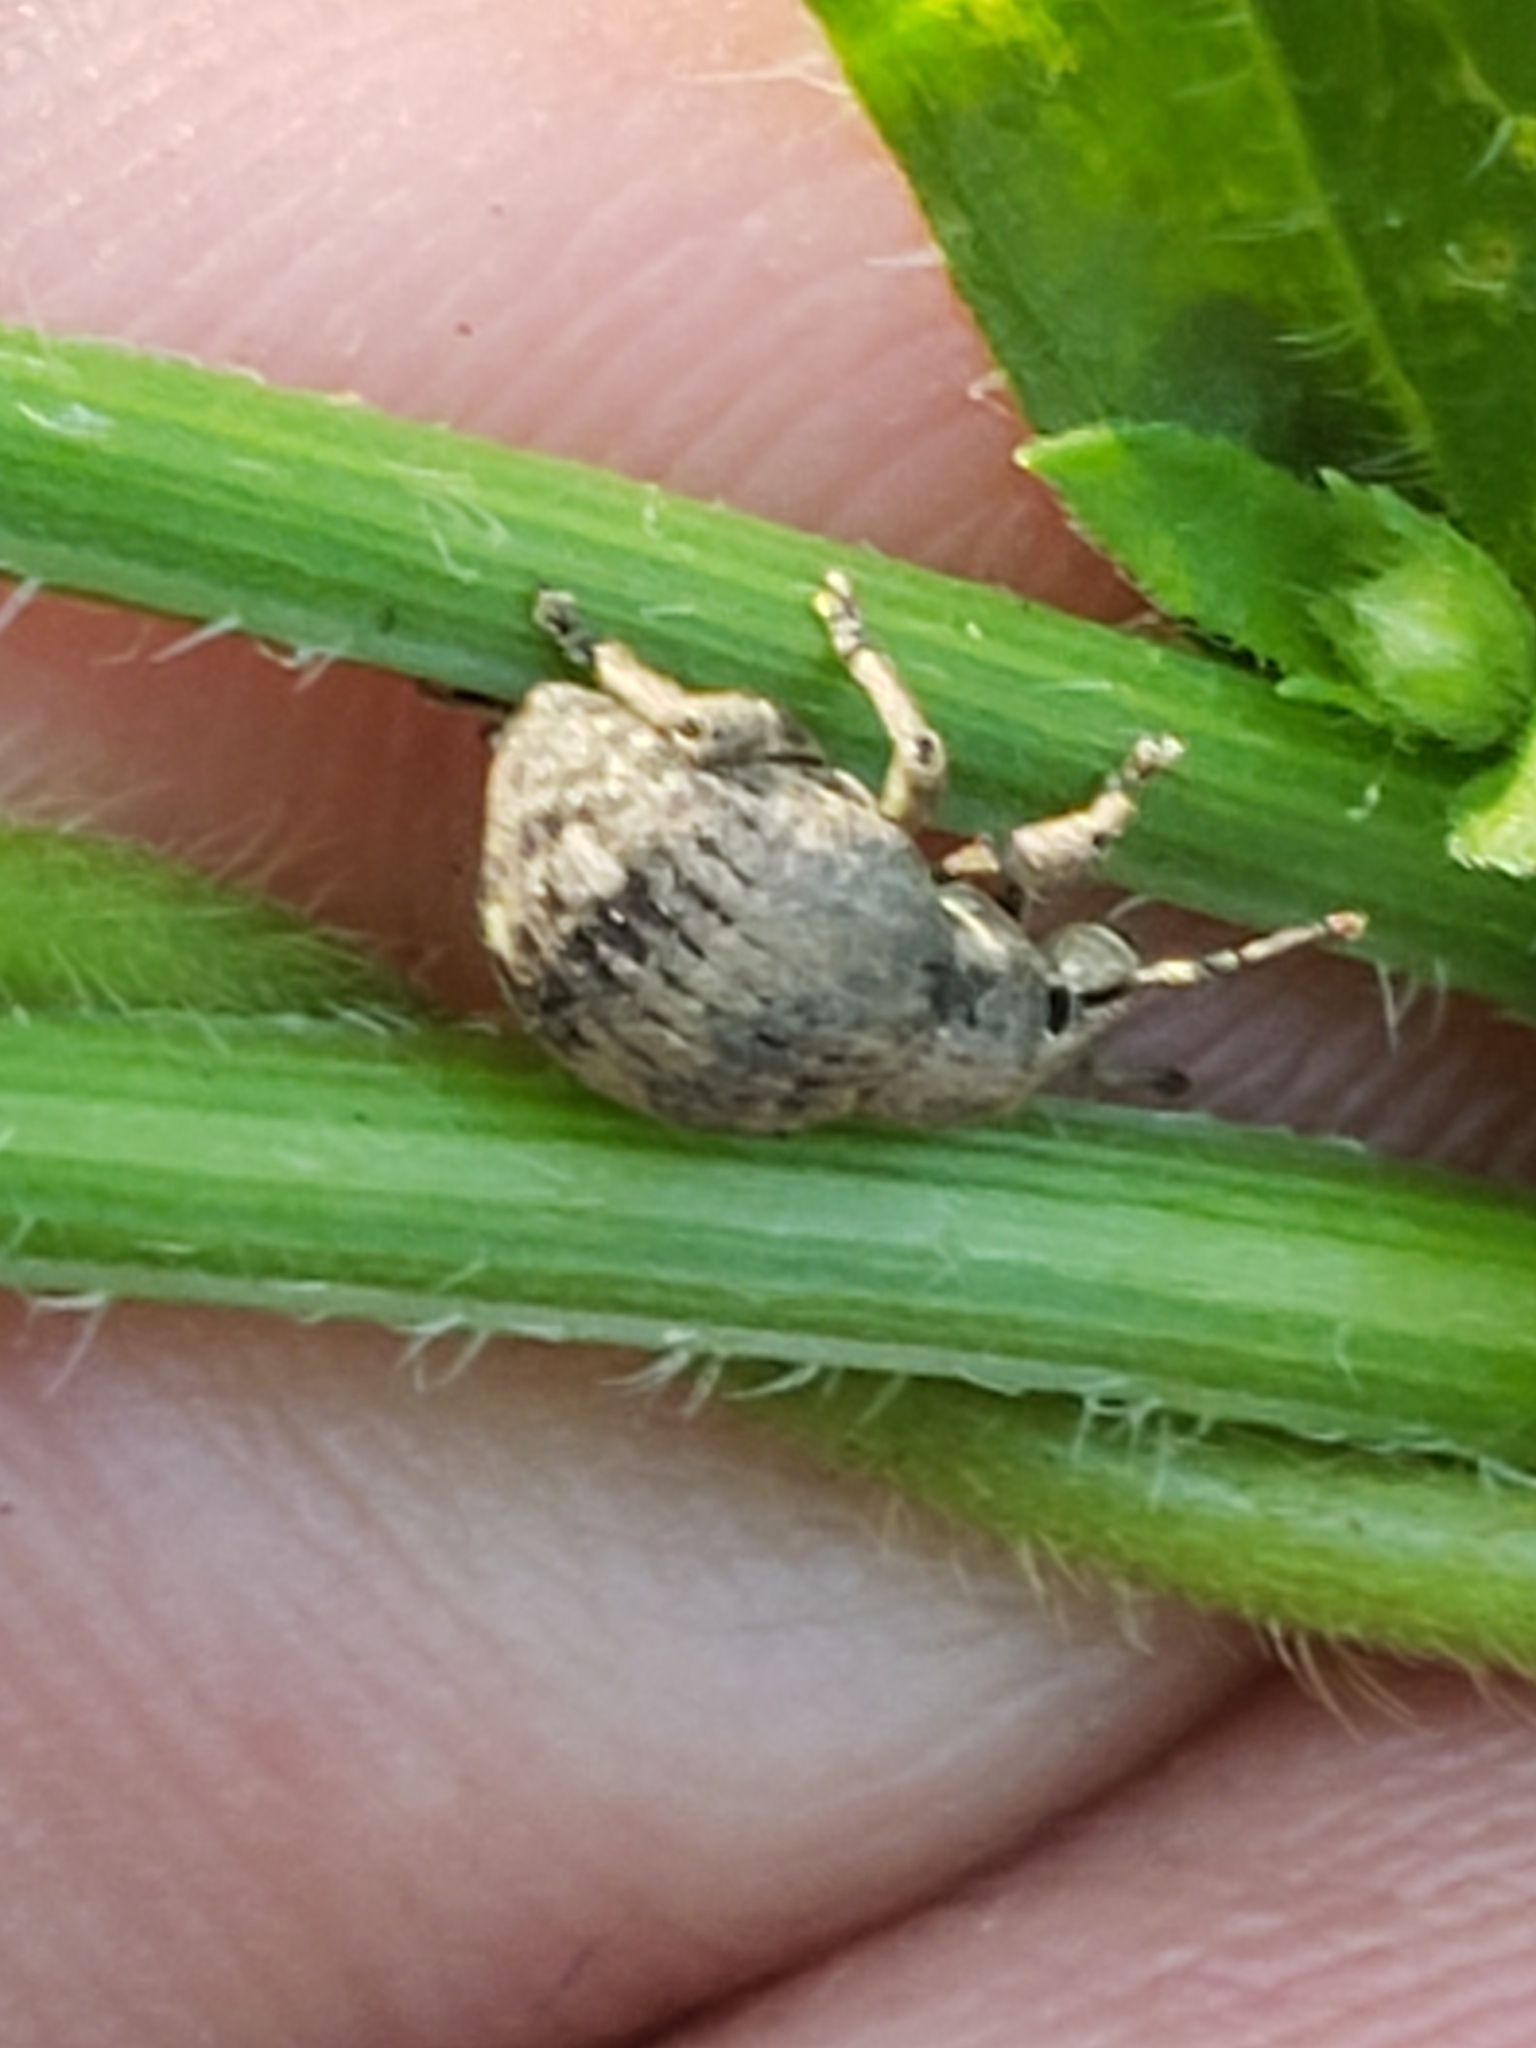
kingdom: Animalia
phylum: Arthropoda
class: Insecta
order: Coleoptera
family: Curculionidae
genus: Pseudocneorhinus
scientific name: Pseudocneorhinus bifasciatus
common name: Two-banded japanese weevil
